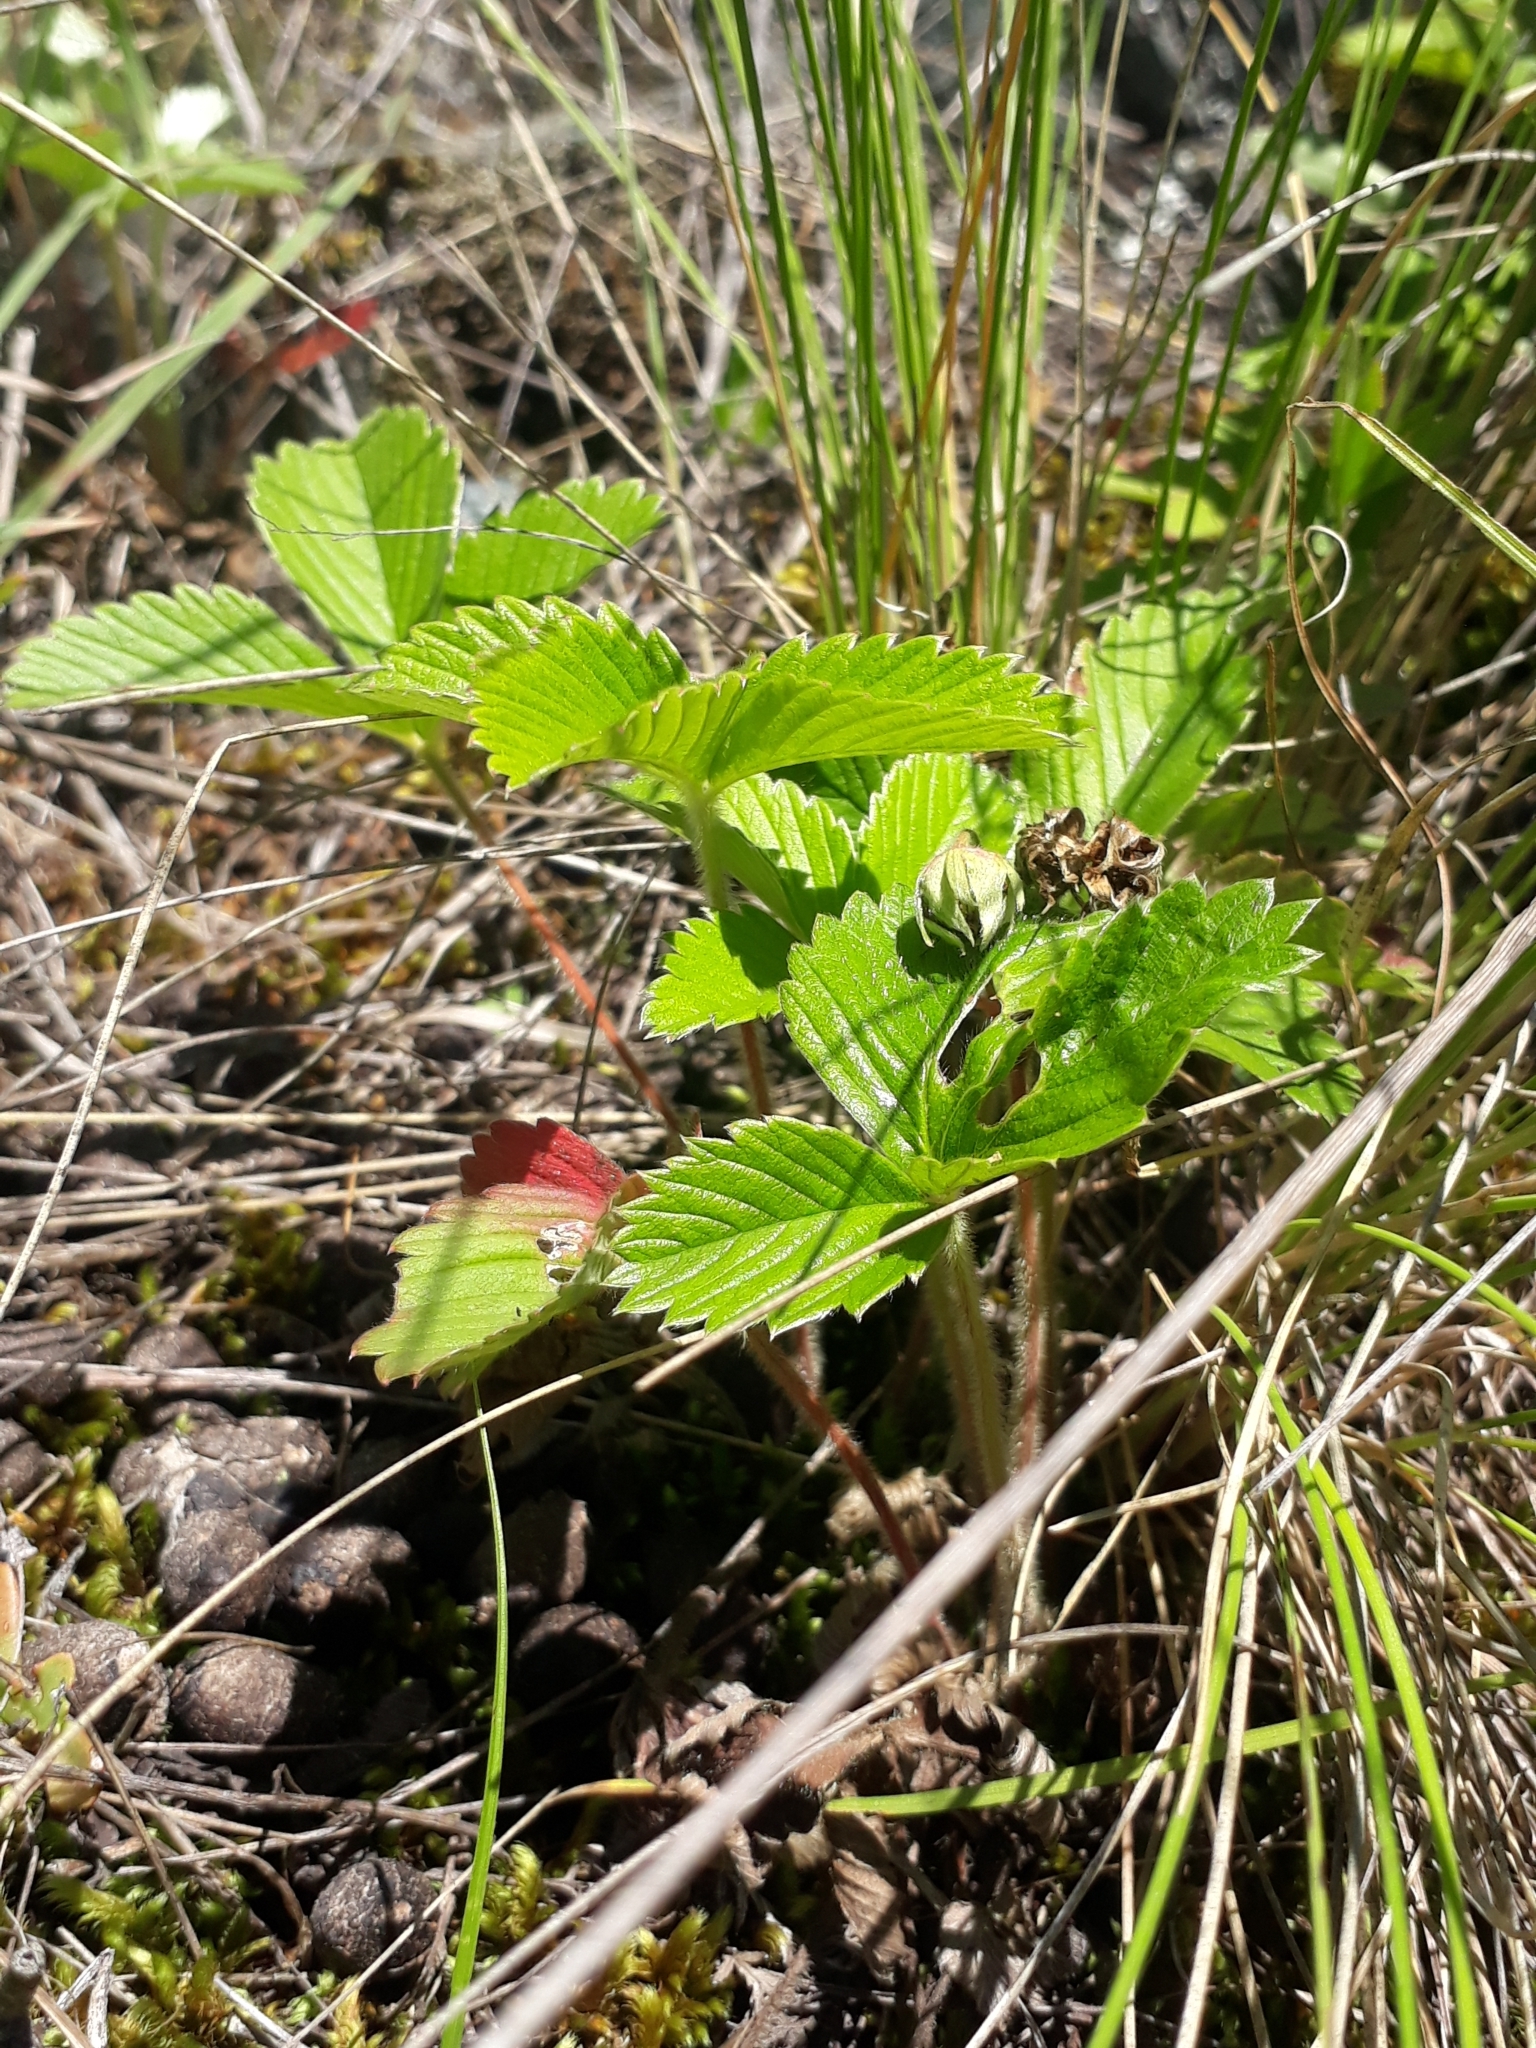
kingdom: Plantae
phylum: Tracheophyta
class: Magnoliopsida
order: Rosales
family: Rosaceae
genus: Fragaria
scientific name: Fragaria viridis
